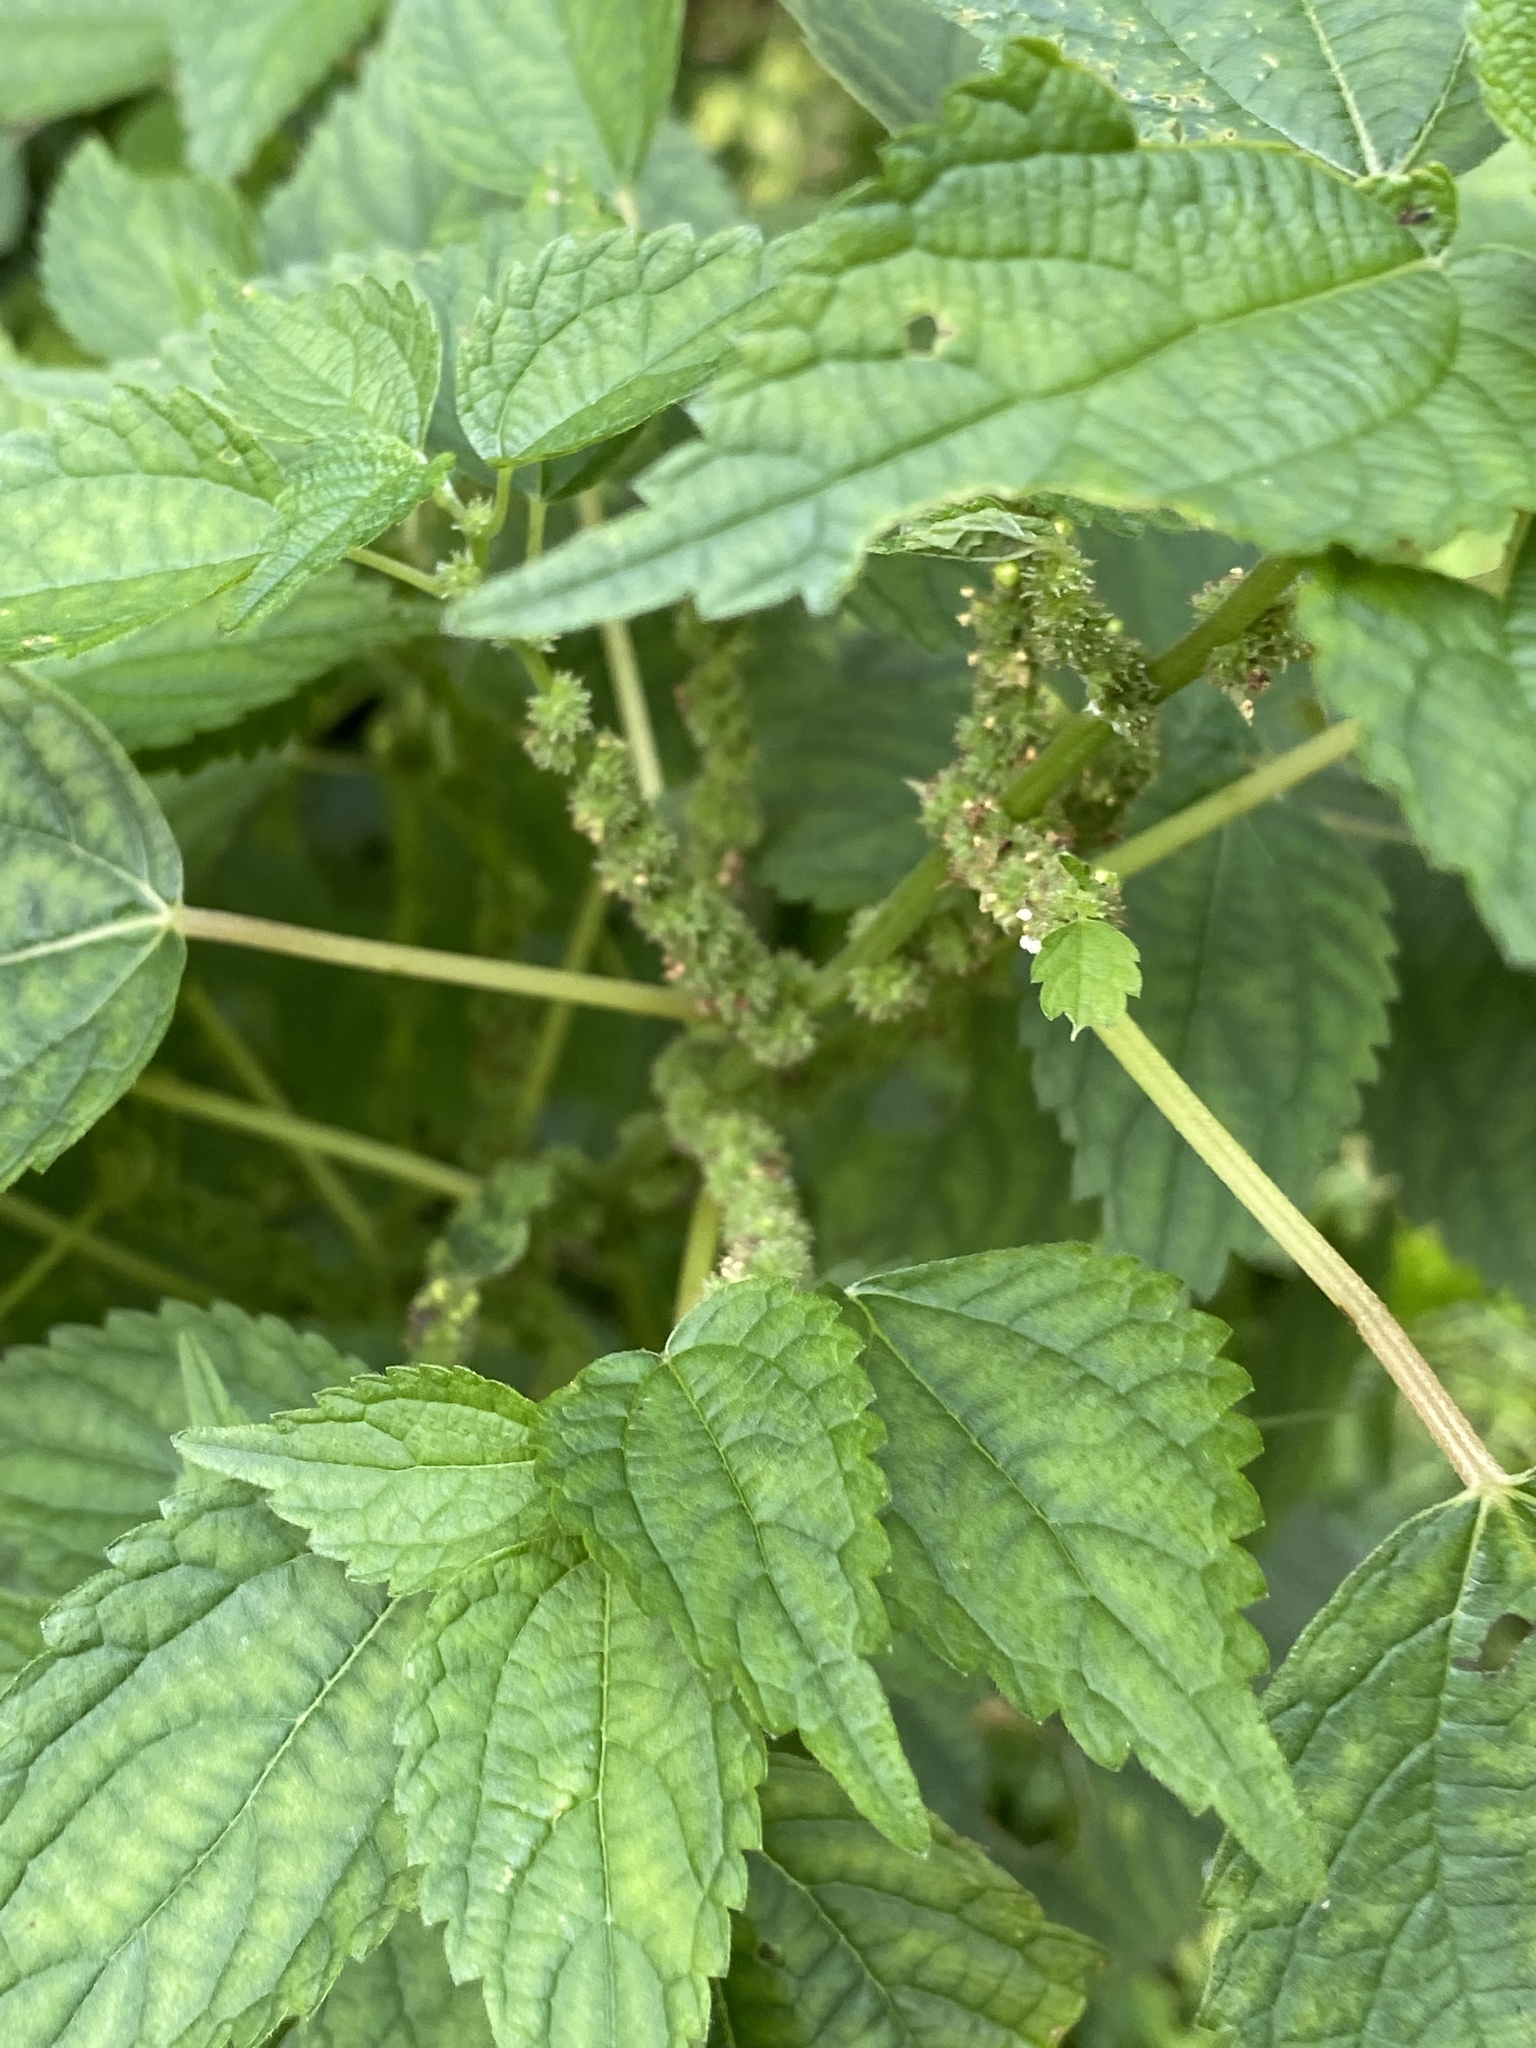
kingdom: Plantae
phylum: Tracheophyta
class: Magnoliopsida
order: Rosales
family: Urticaceae
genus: Boehmeria
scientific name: Boehmeria cylindrica
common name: Bog-hemp
